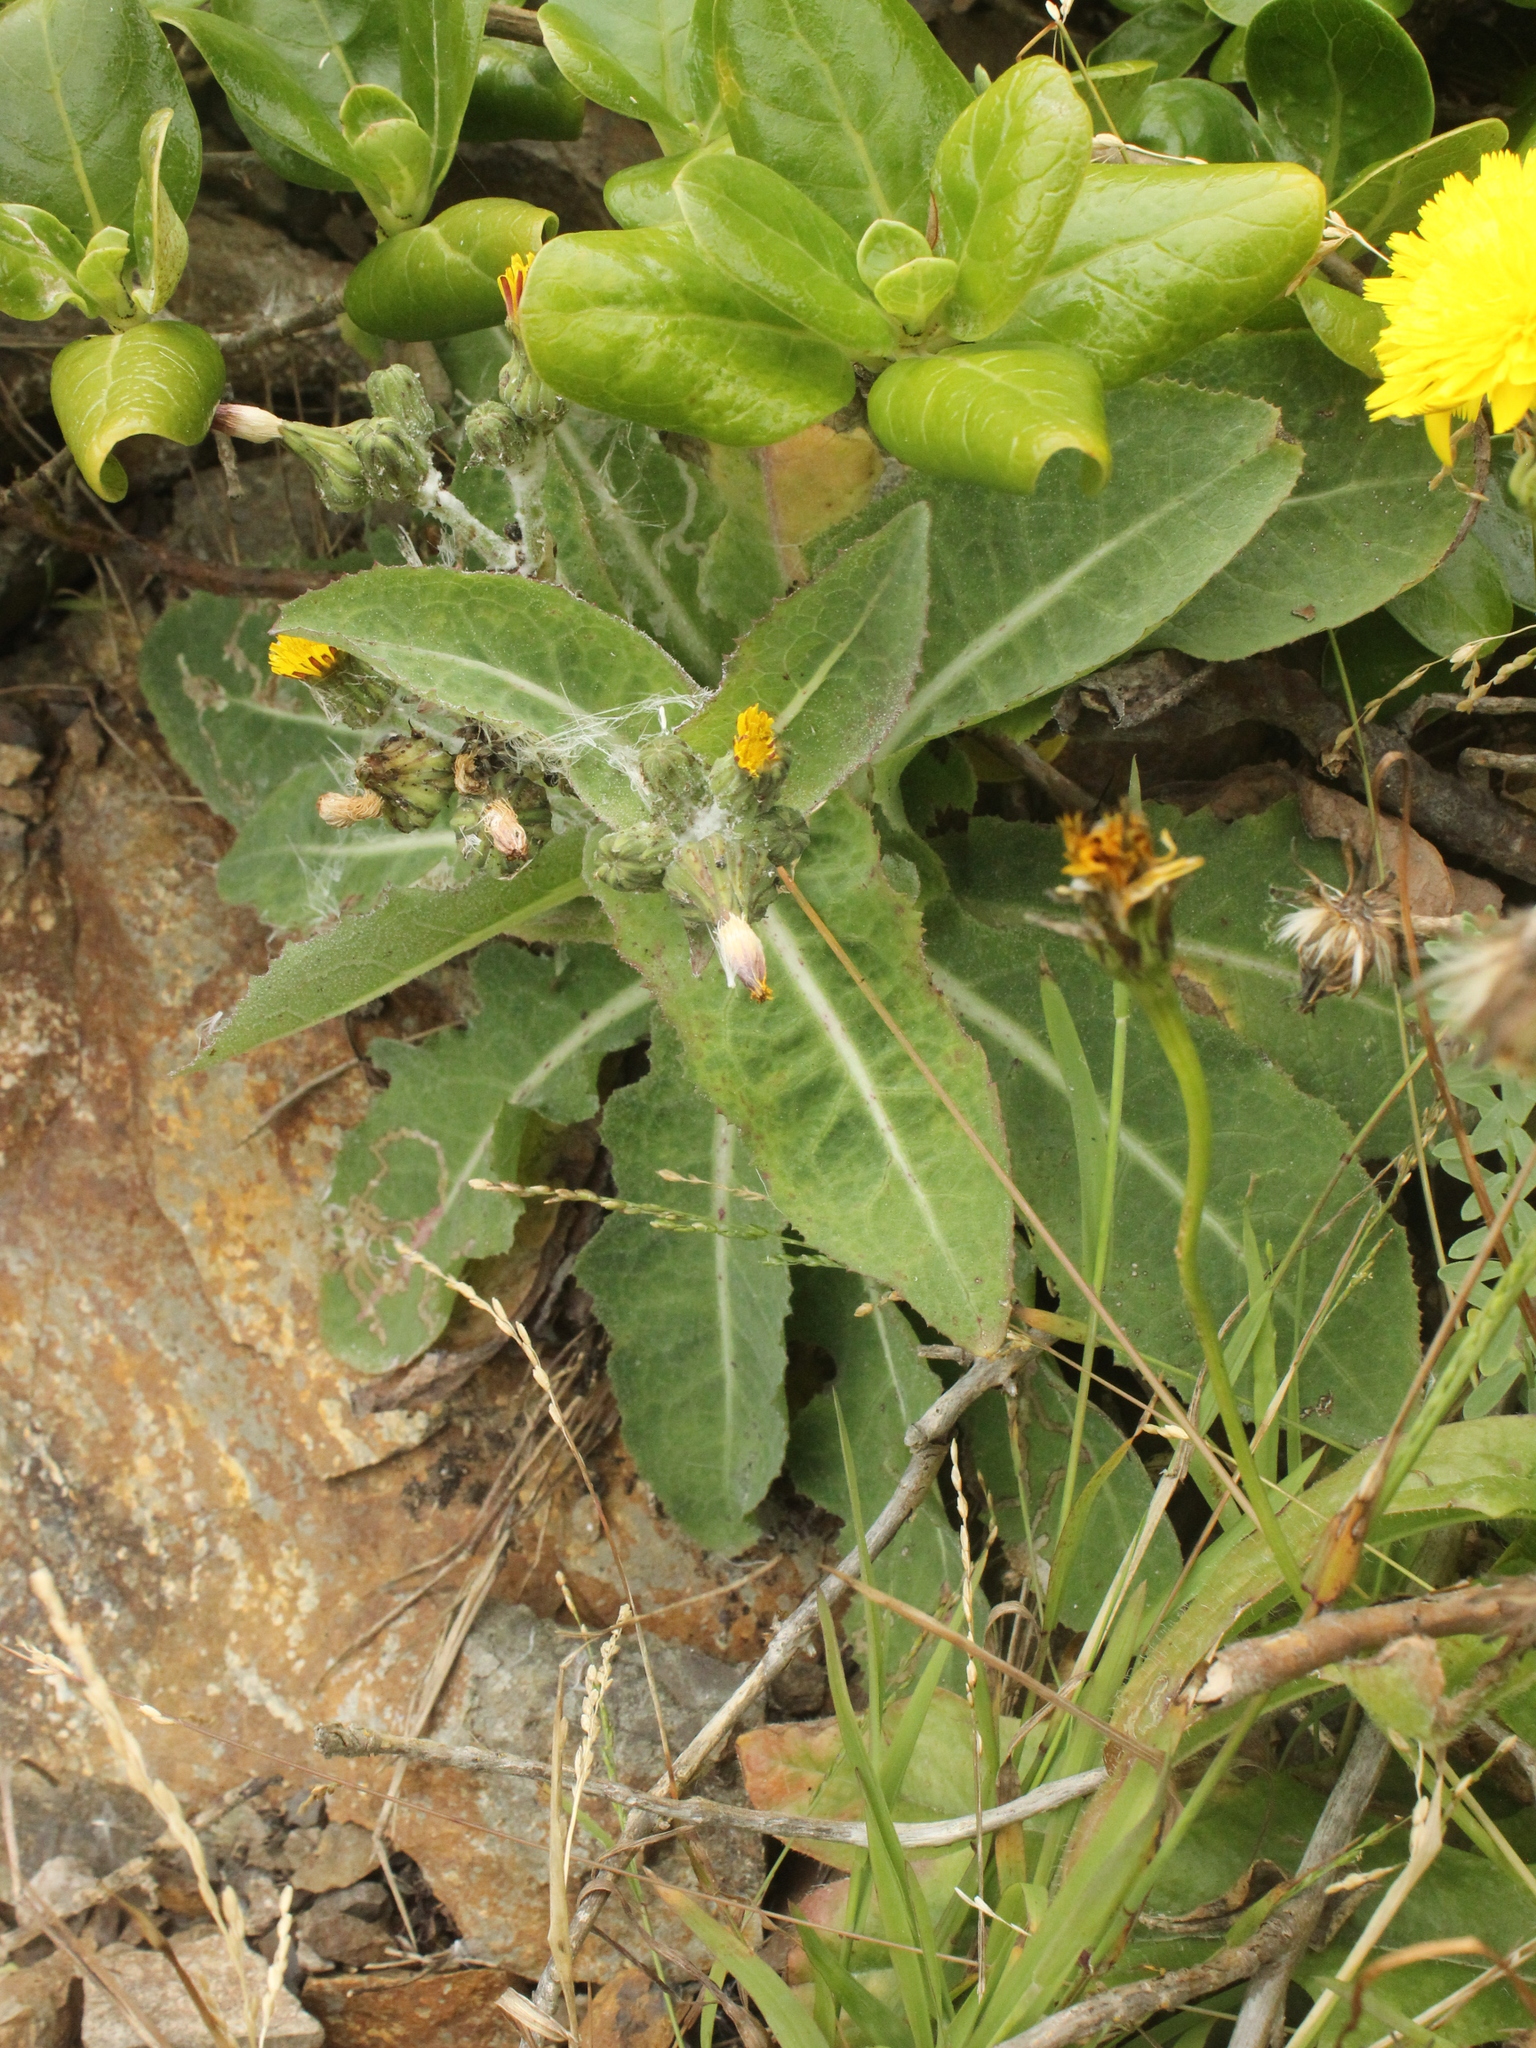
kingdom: Plantae
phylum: Tracheophyta
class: Magnoliopsida
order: Asterales
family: Asteraceae
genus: Sonchus
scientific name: Sonchus kirkii
